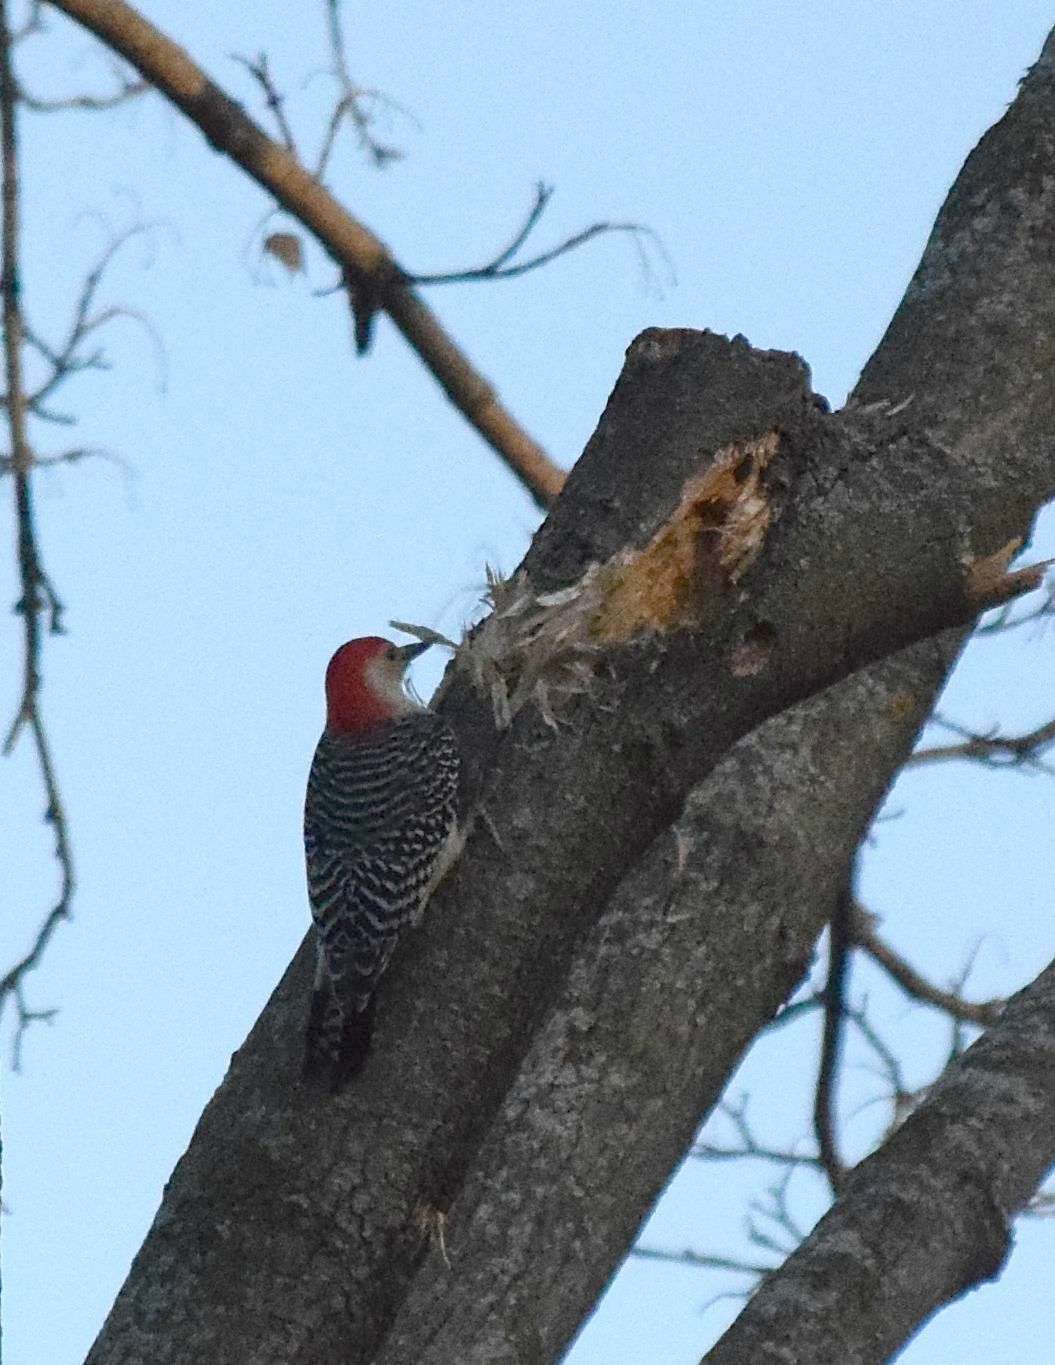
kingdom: Animalia
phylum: Chordata
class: Aves
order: Piciformes
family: Picidae
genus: Melanerpes
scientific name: Melanerpes carolinus
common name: Red-bellied woodpecker
